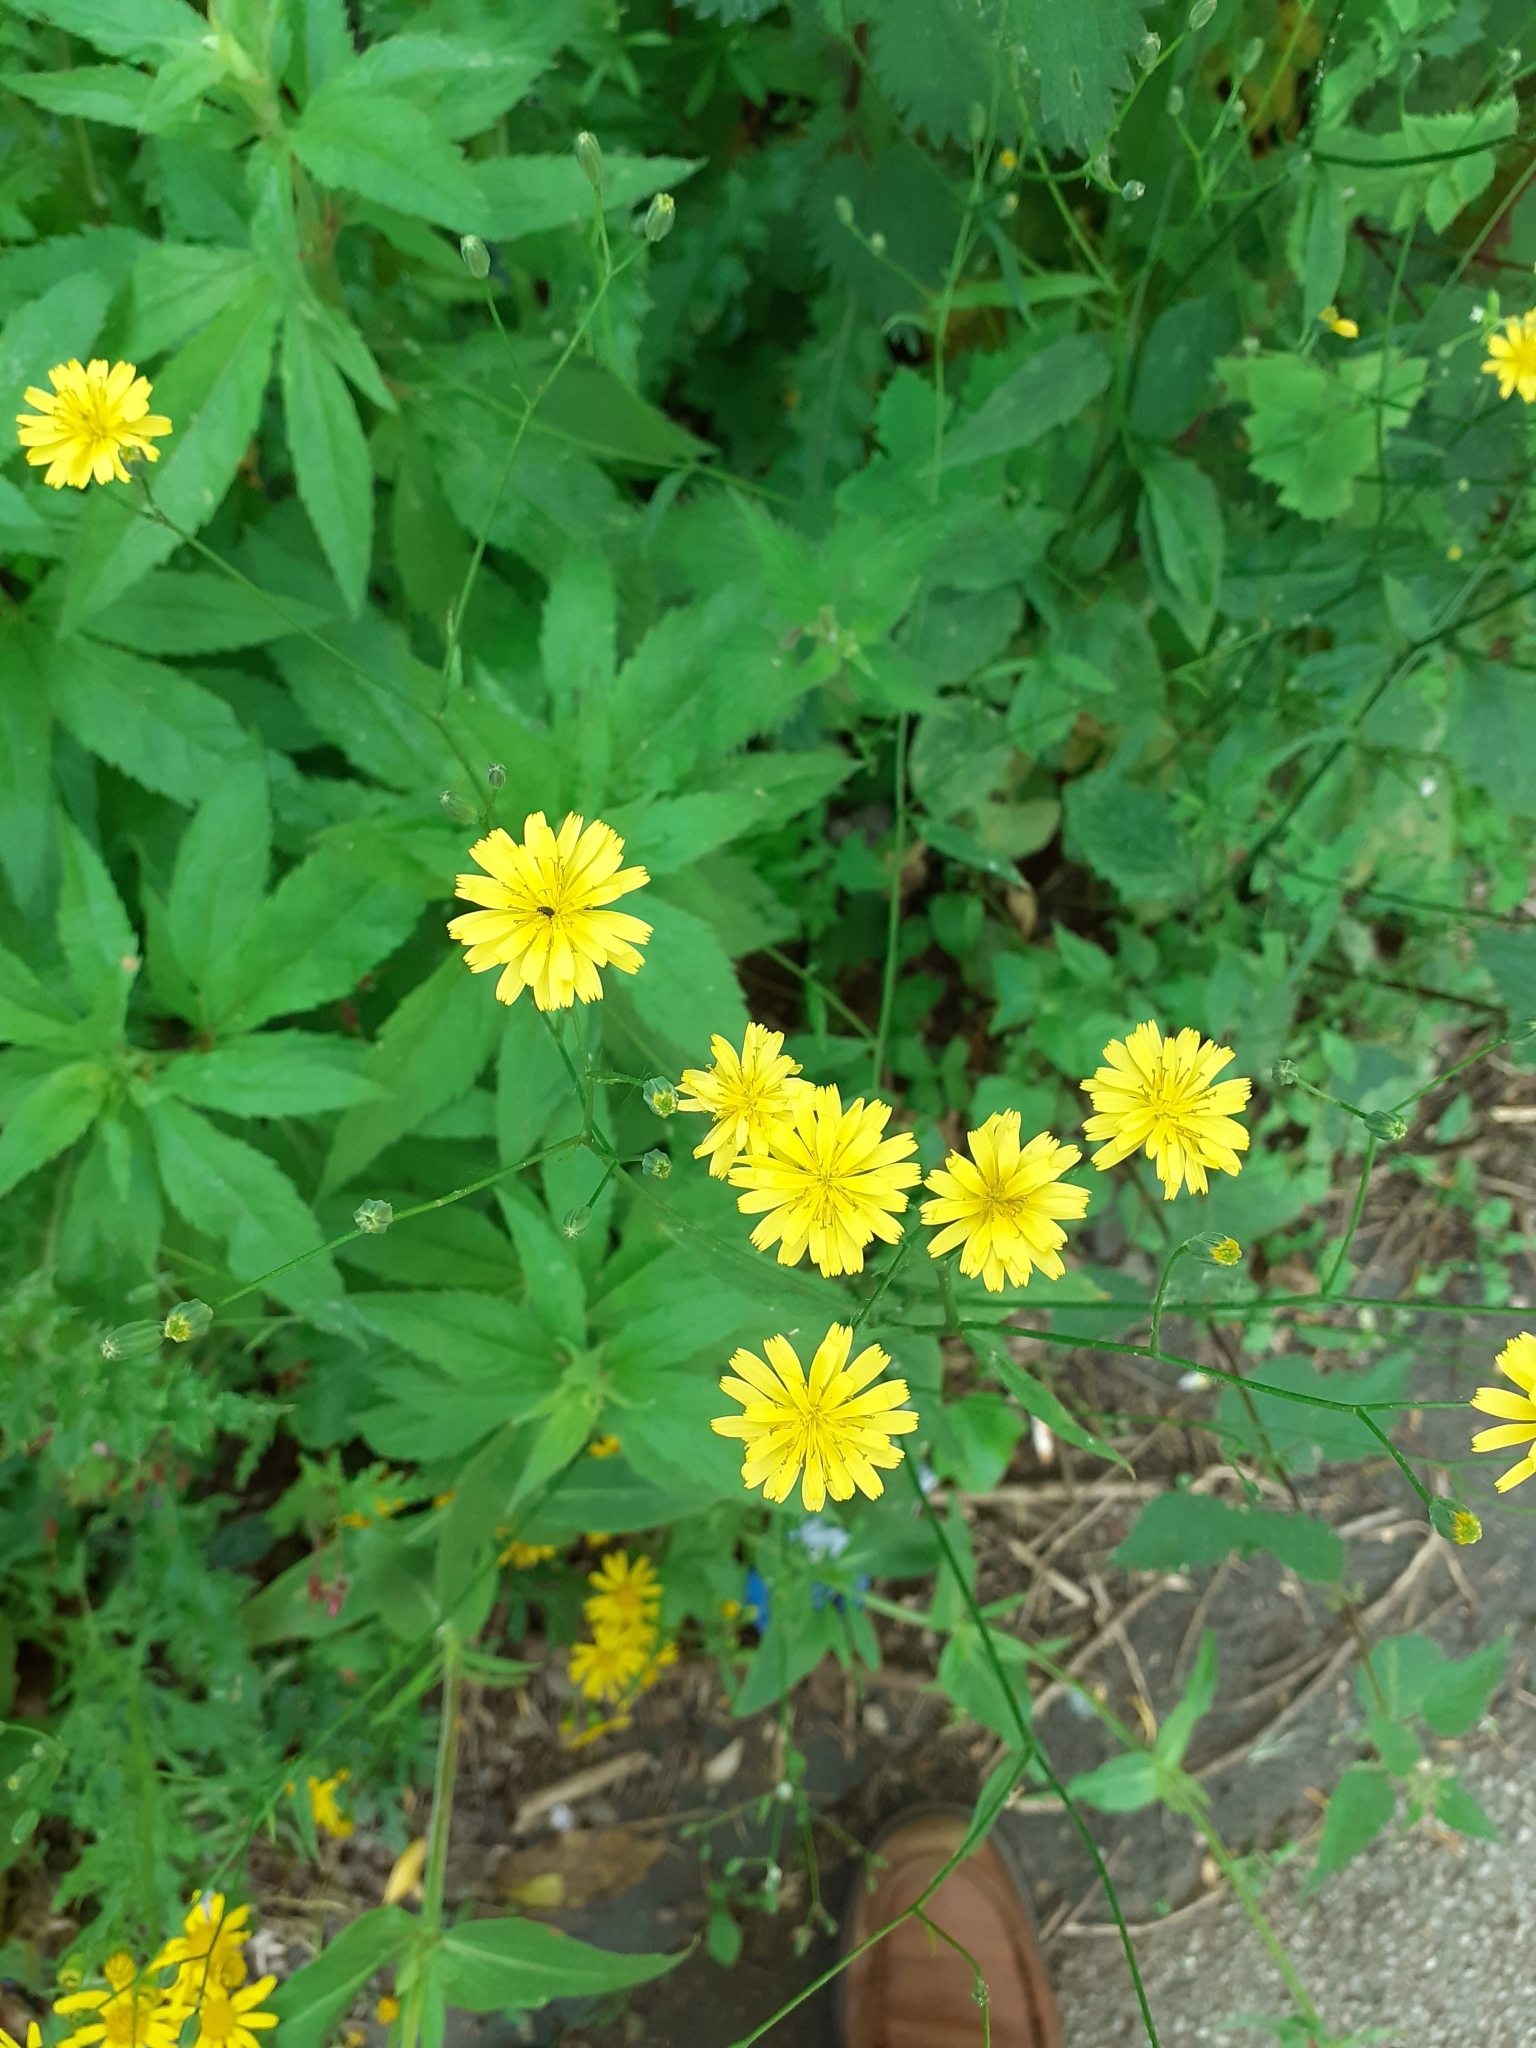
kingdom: Plantae
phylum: Tracheophyta
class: Magnoliopsida
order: Asterales
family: Asteraceae
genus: Lapsana
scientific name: Lapsana communis
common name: Nipplewort
